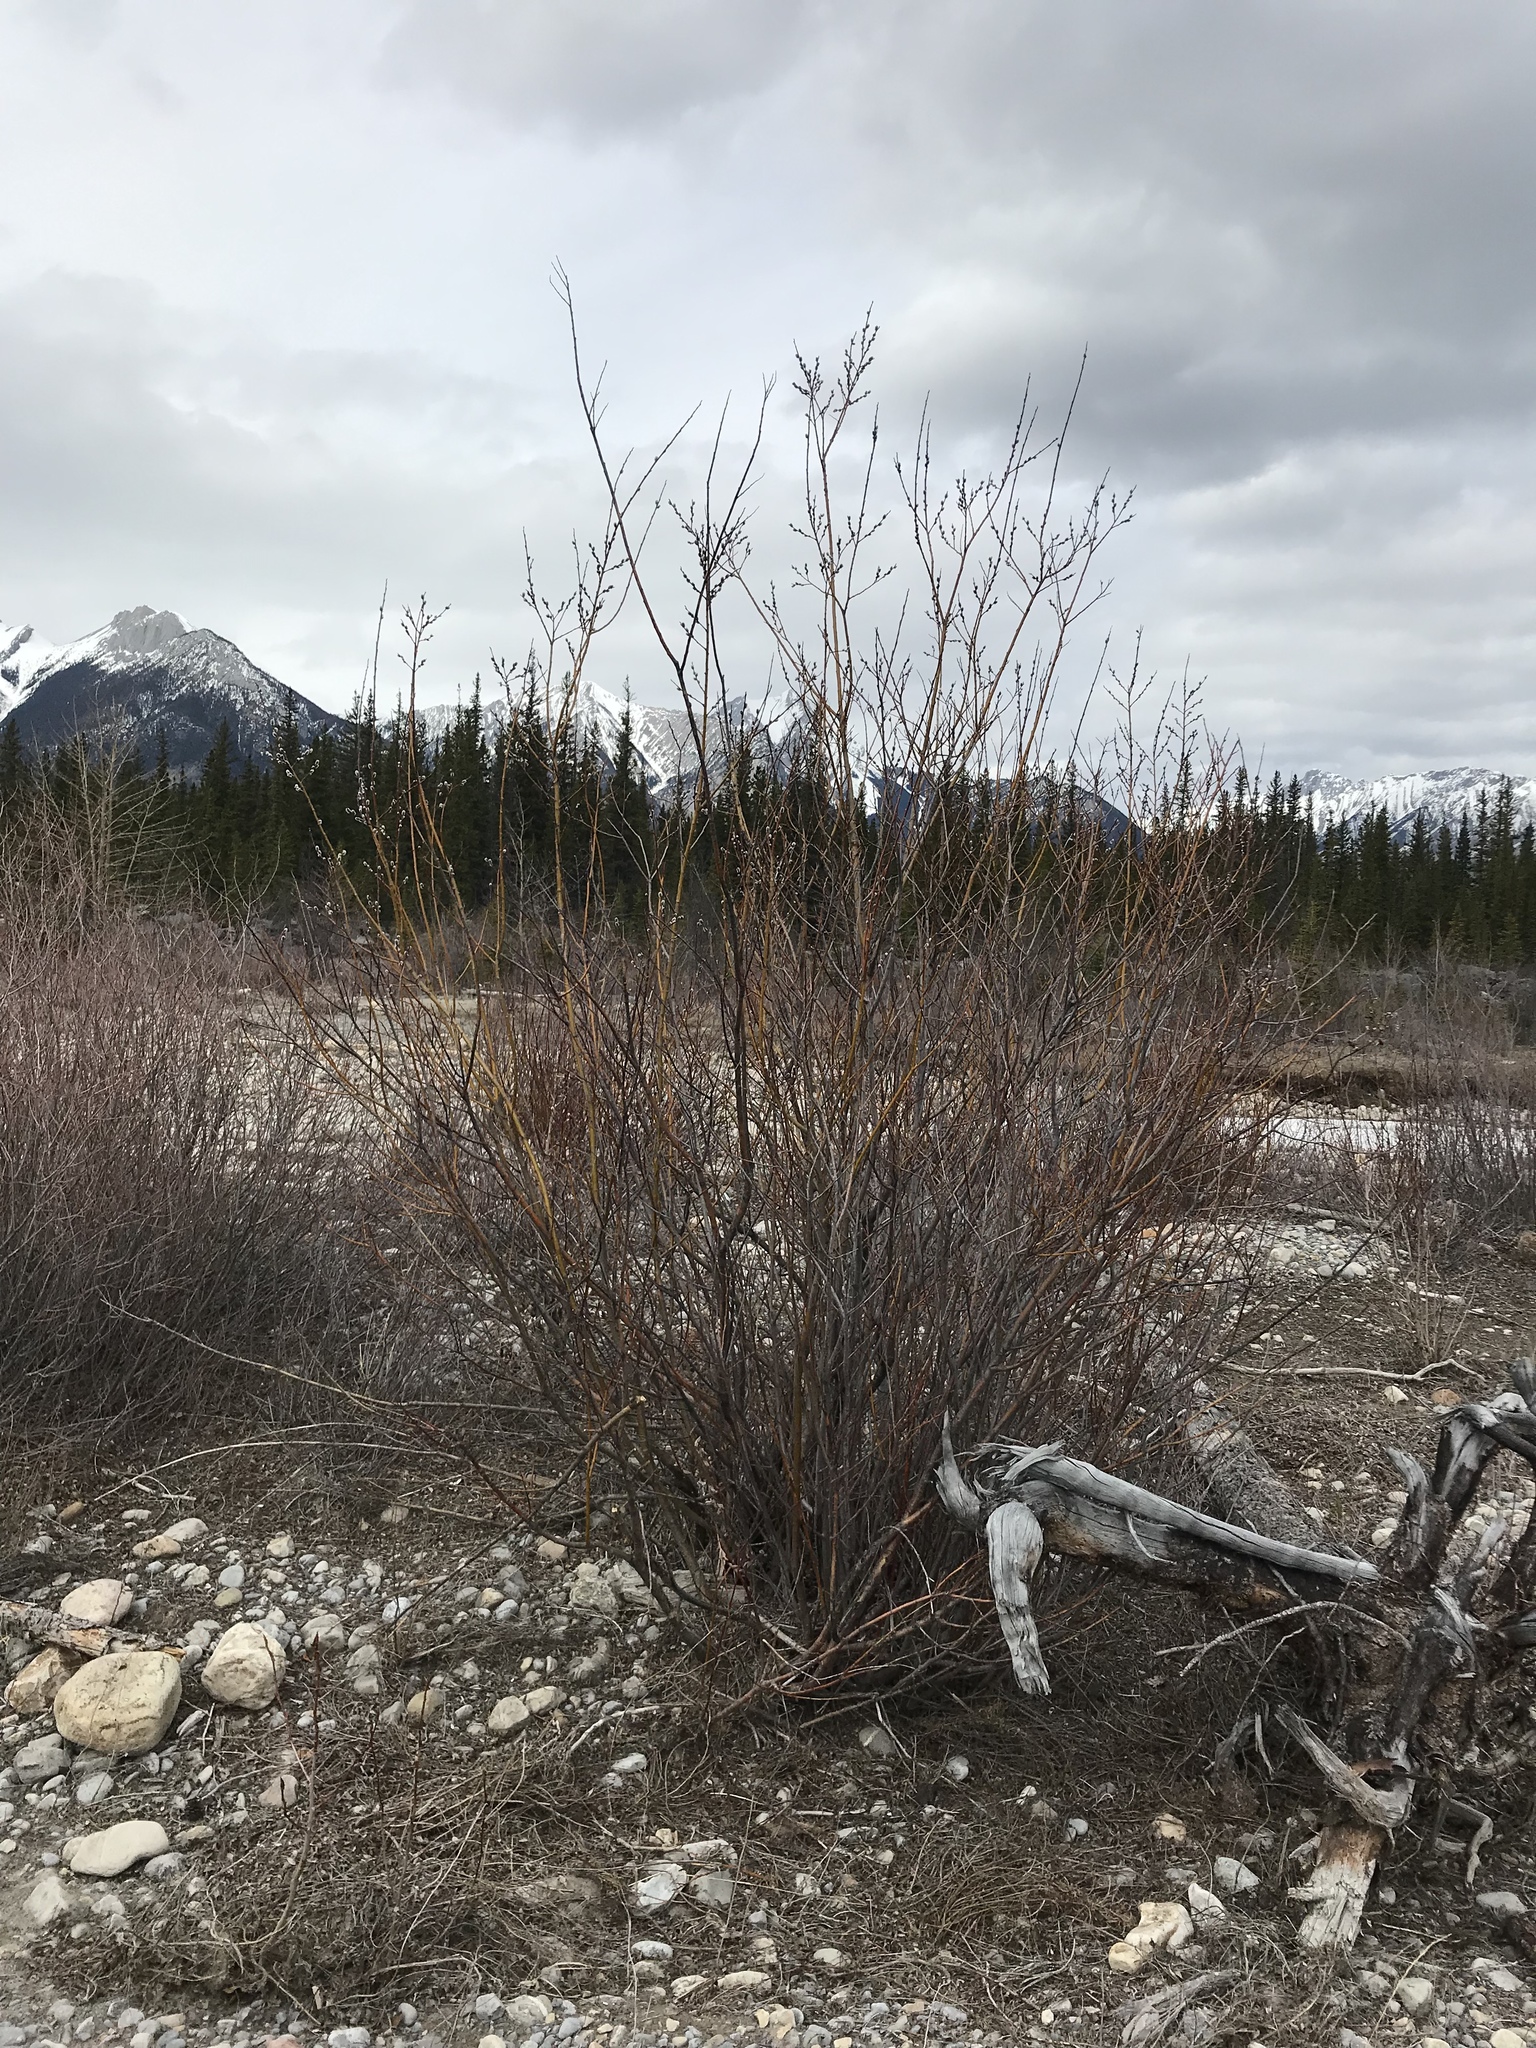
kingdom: Plantae
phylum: Tracheophyta
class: Magnoliopsida
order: Malpighiales
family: Salicaceae
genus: Salix
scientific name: Salix discolor
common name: Glaucous willow
